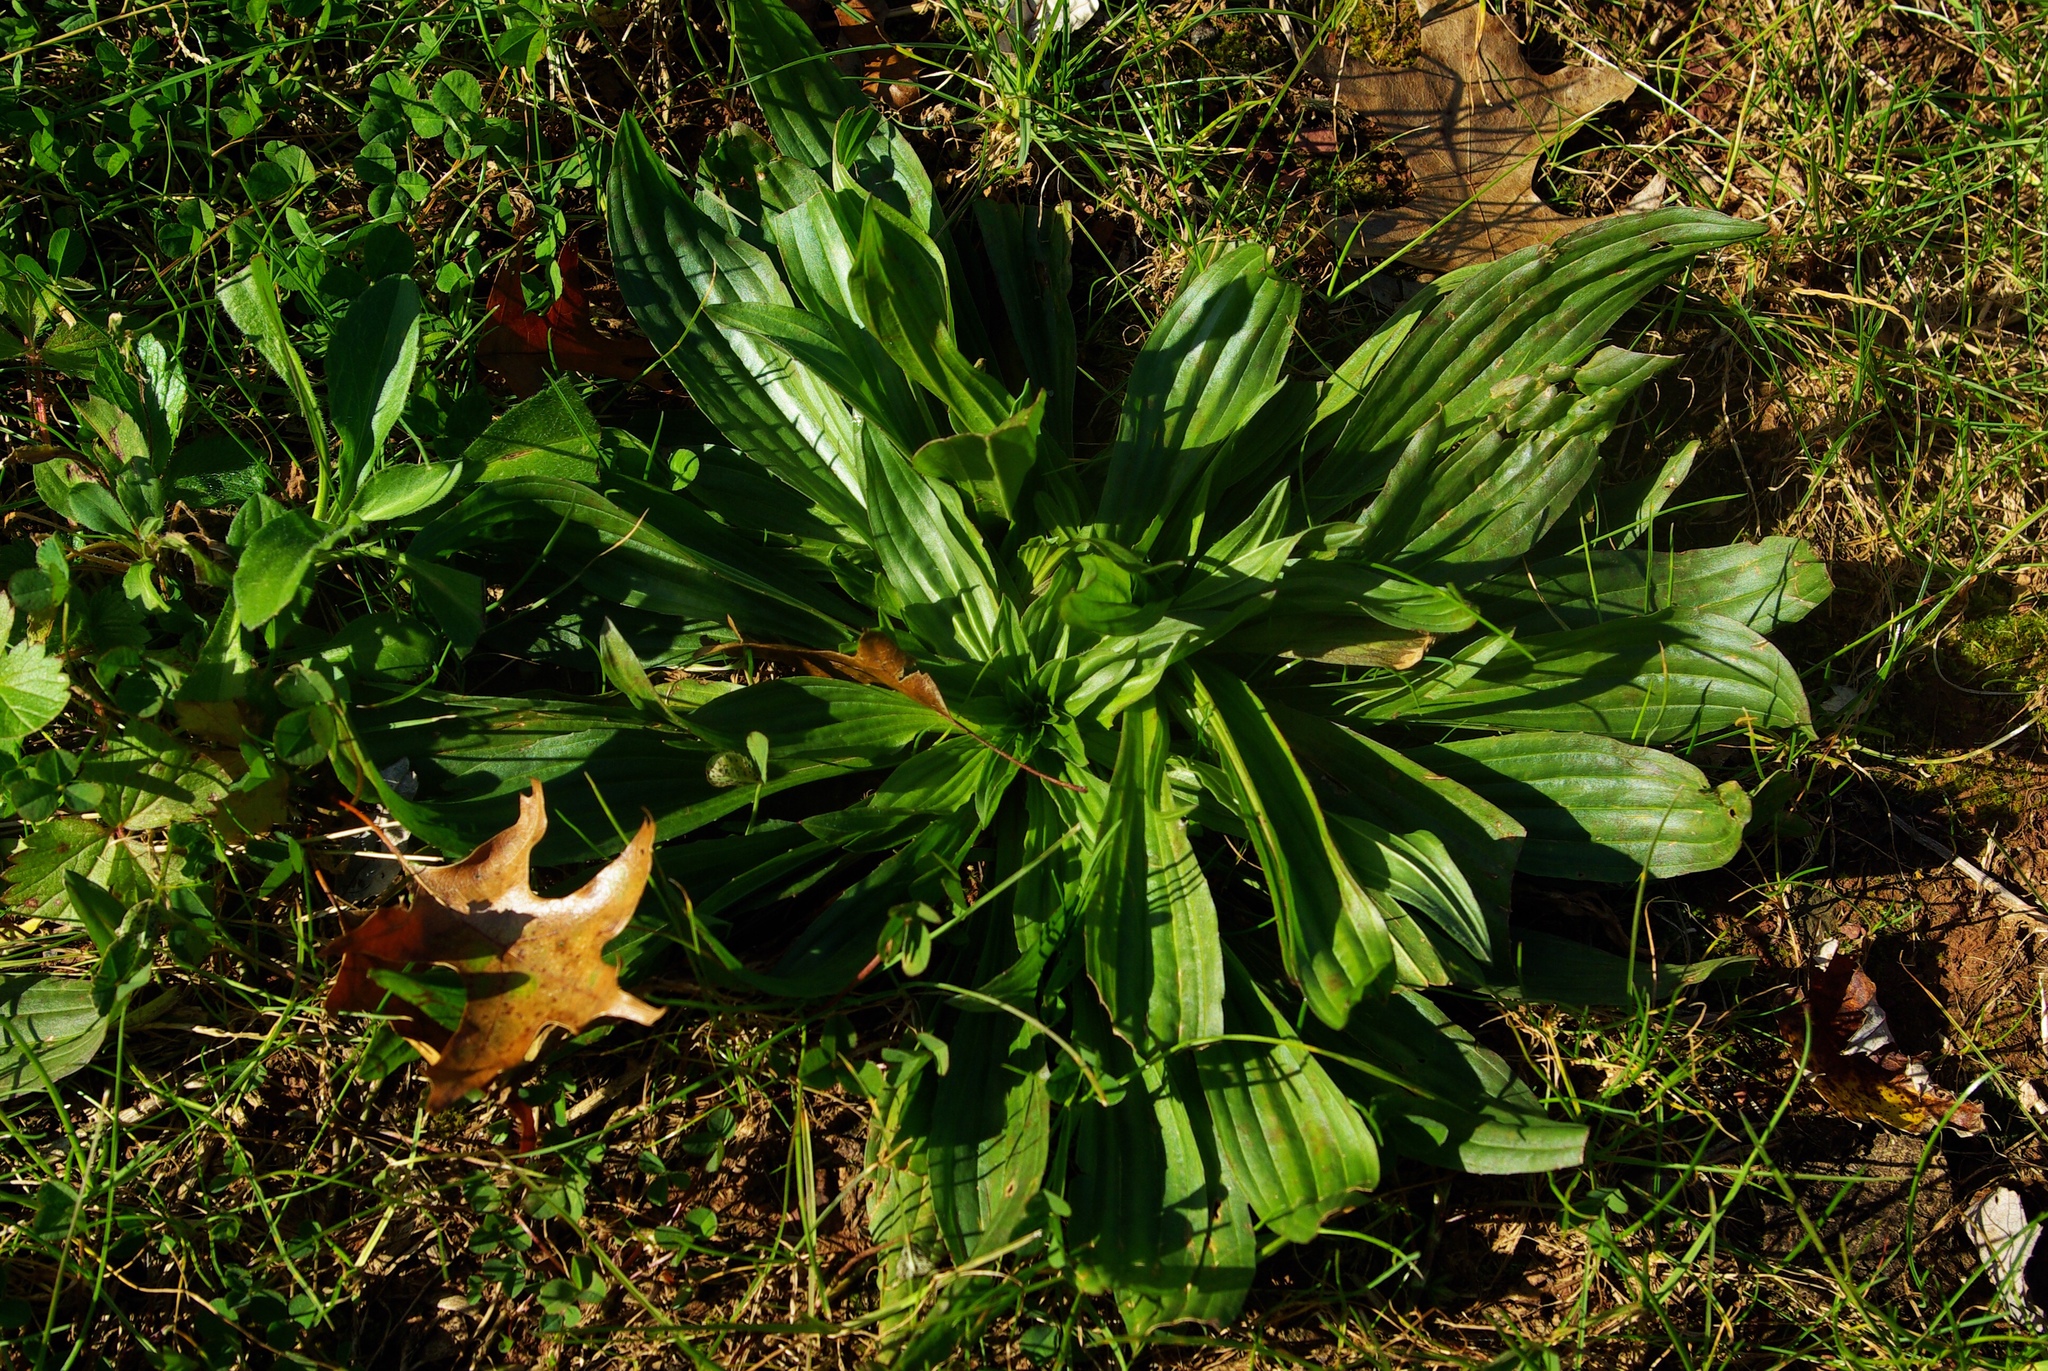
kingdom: Plantae
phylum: Tracheophyta
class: Magnoliopsida
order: Lamiales
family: Plantaginaceae
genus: Plantago
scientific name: Plantago lanceolata
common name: Ribwort plantain
